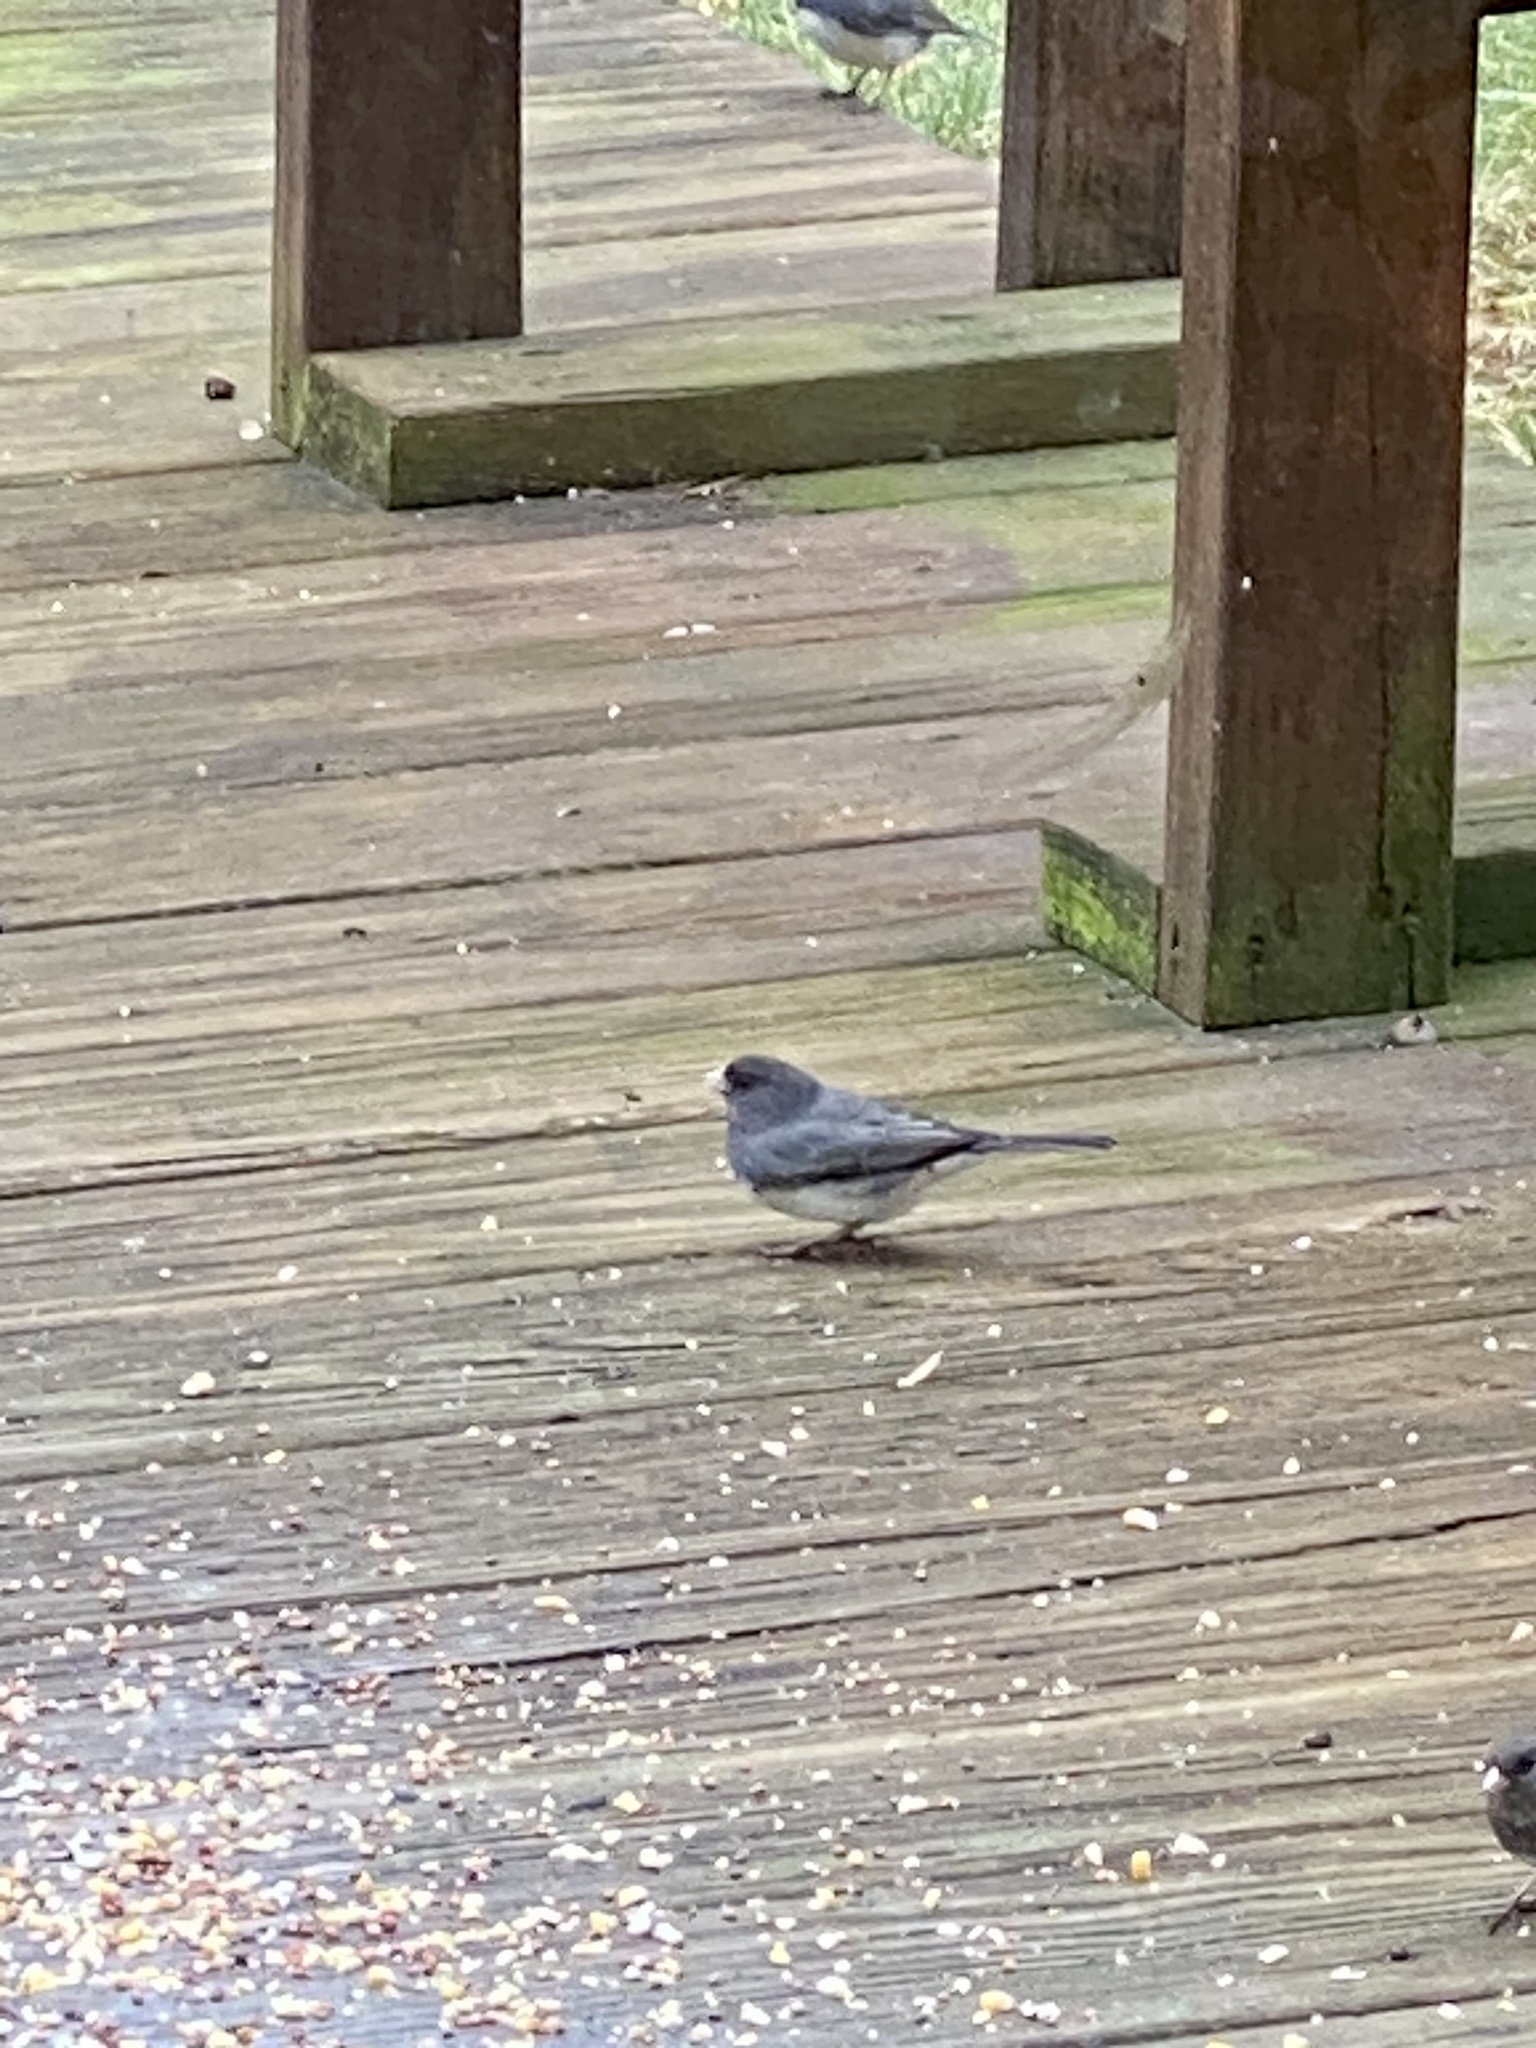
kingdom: Animalia
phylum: Chordata
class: Aves
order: Passeriformes
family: Passerellidae
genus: Junco
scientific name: Junco hyemalis
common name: Dark-eyed junco
